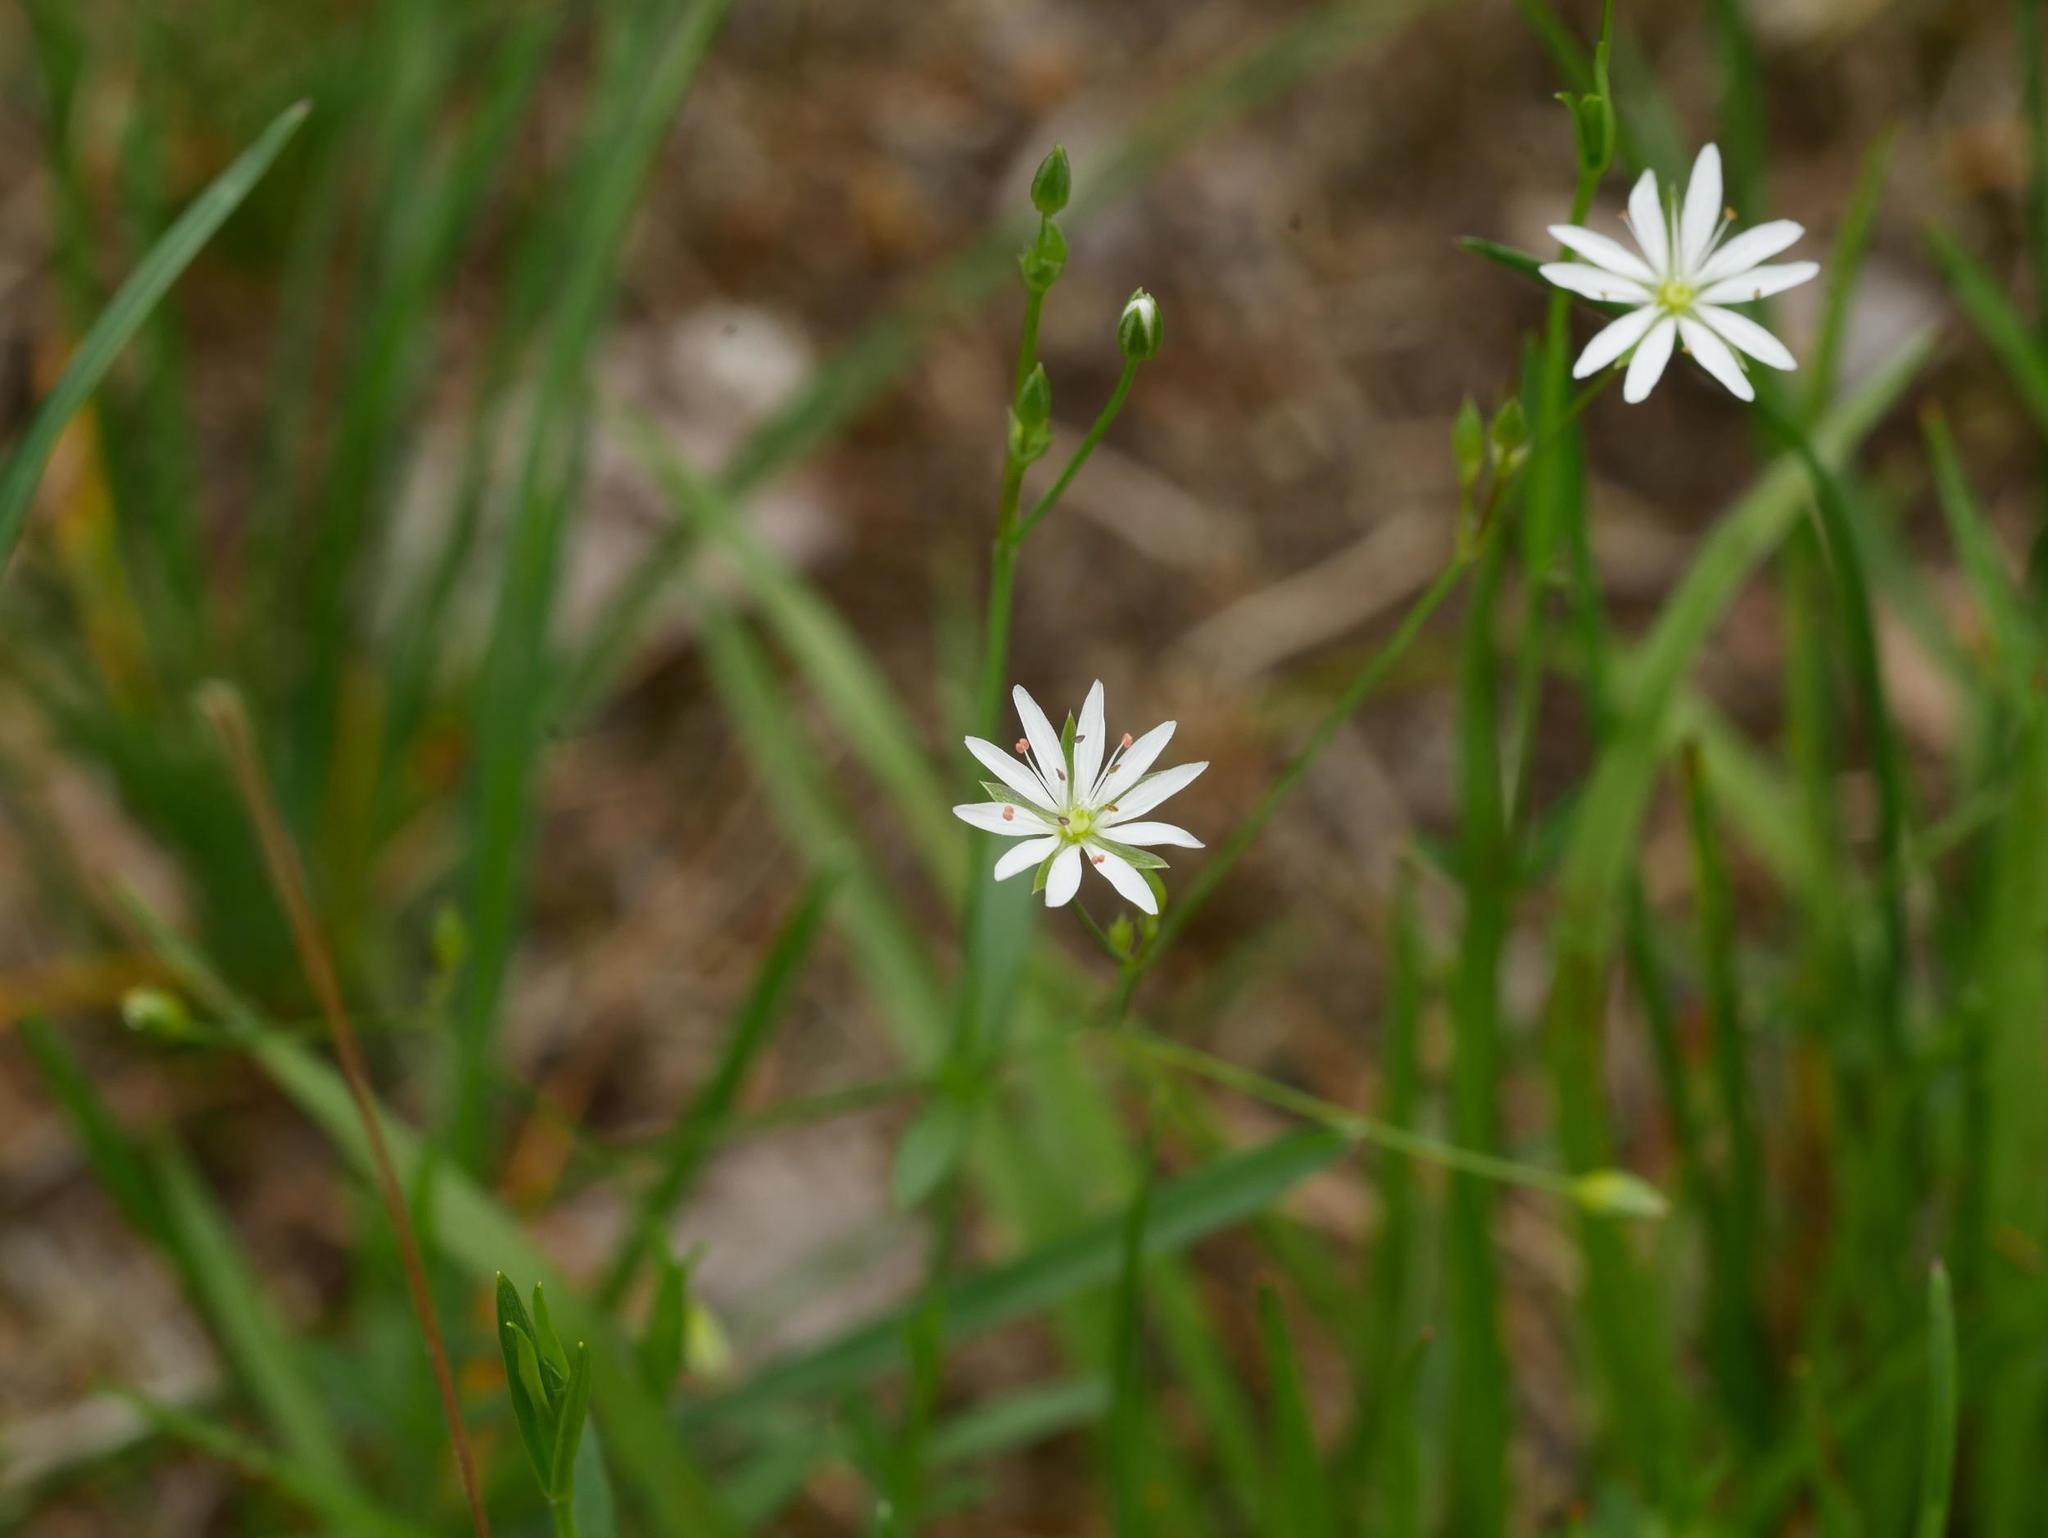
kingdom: Plantae
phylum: Tracheophyta
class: Magnoliopsida
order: Caryophyllales
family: Caryophyllaceae
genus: Stellaria
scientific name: Stellaria graminea
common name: Grass-like starwort
